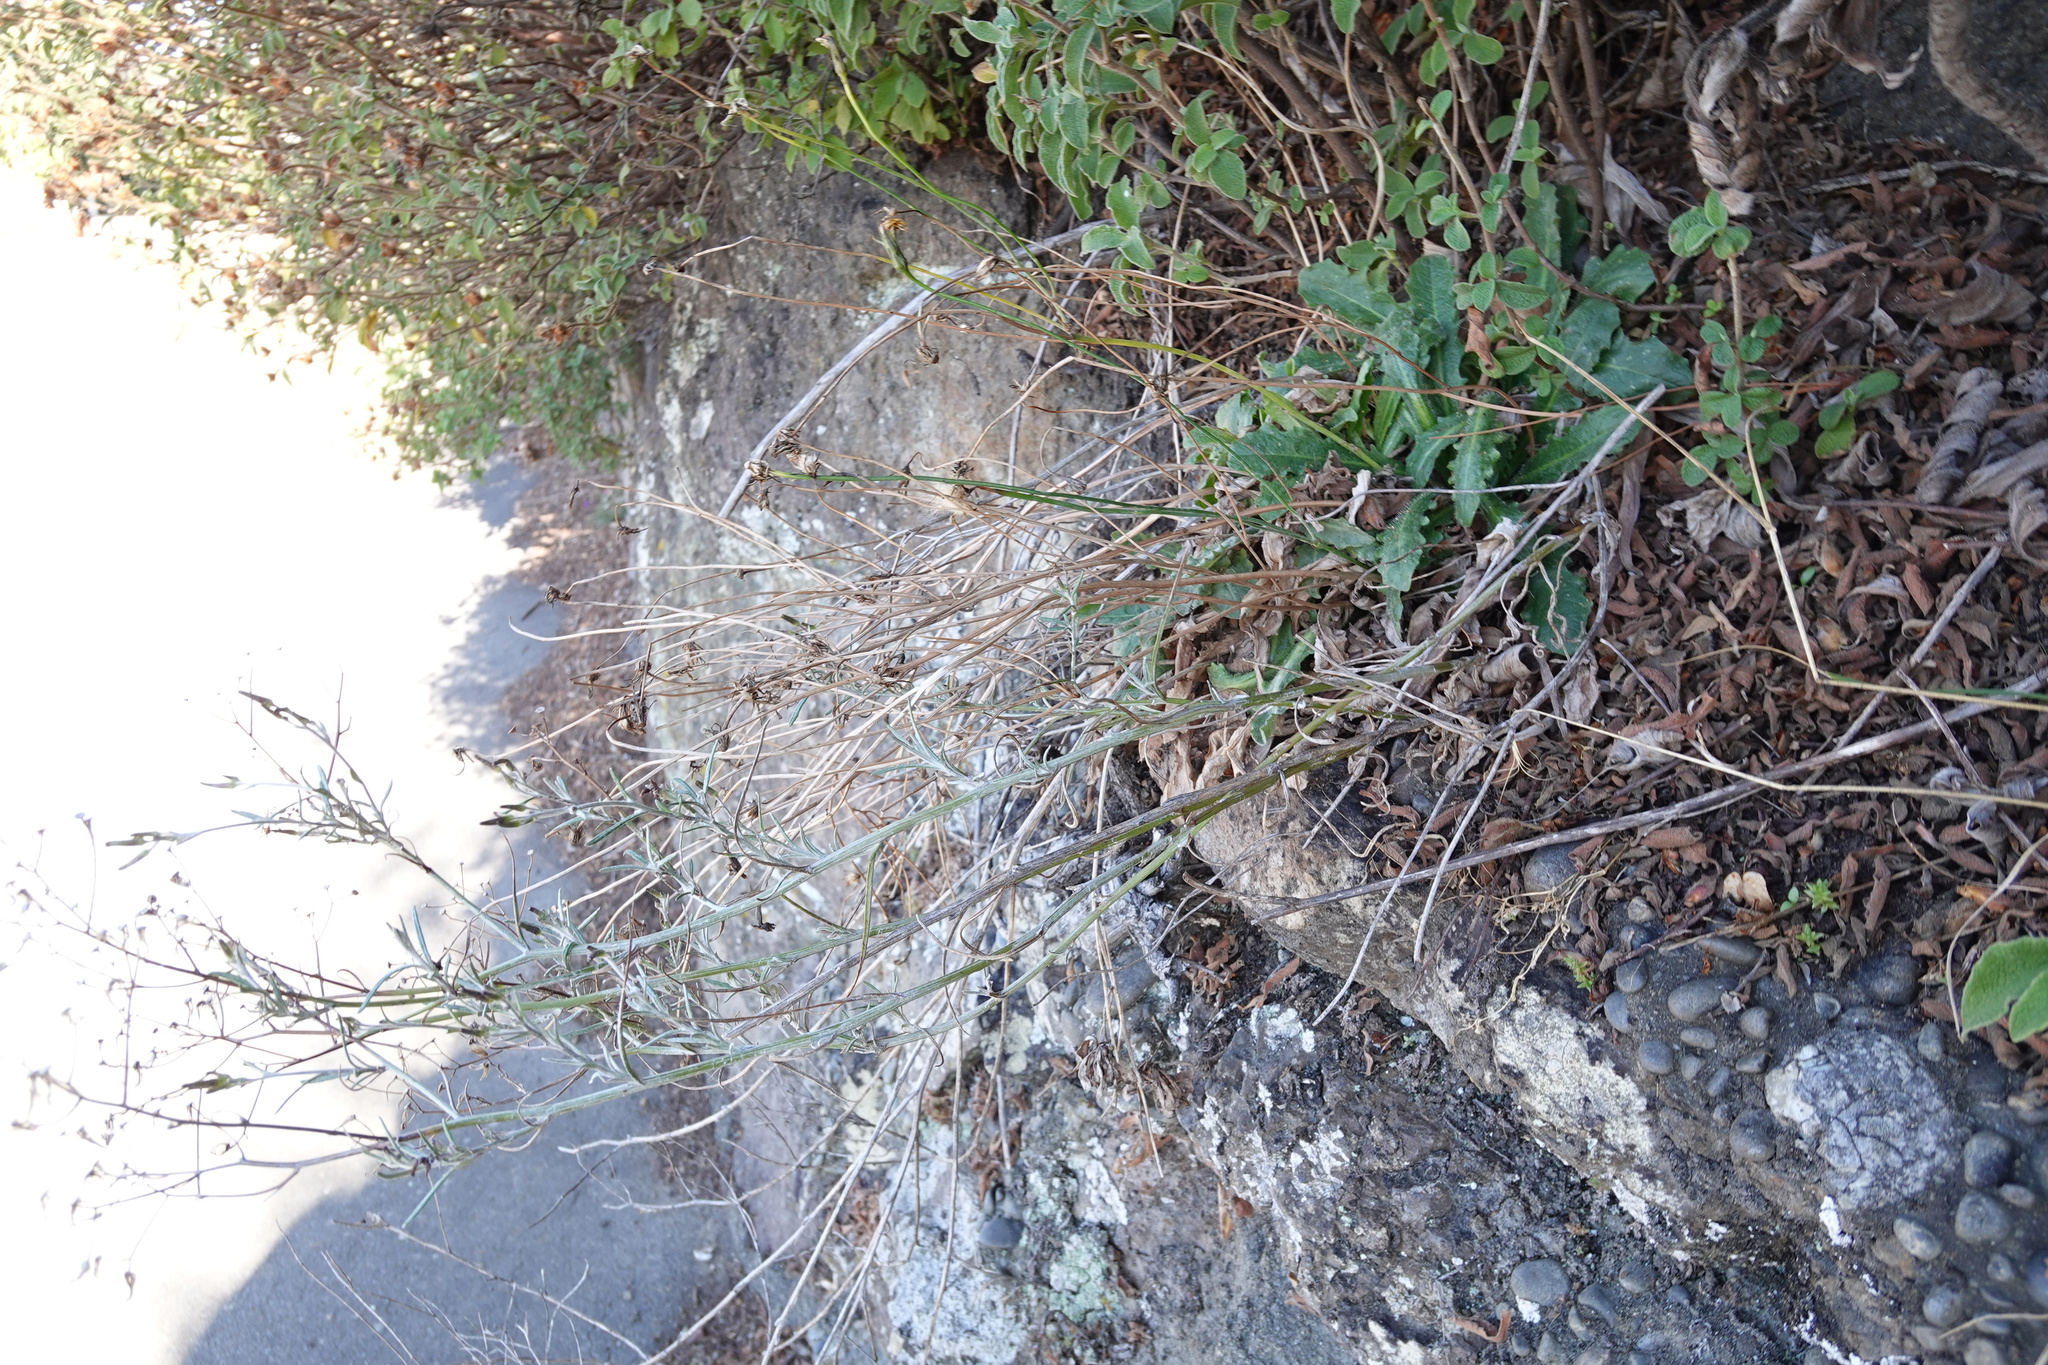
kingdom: Plantae
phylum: Tracheophyta
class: Magnoliopsida
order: Asterales
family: Asteraceae
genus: Senecio
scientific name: Senecio quadridentatus
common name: Cotton fireweed
